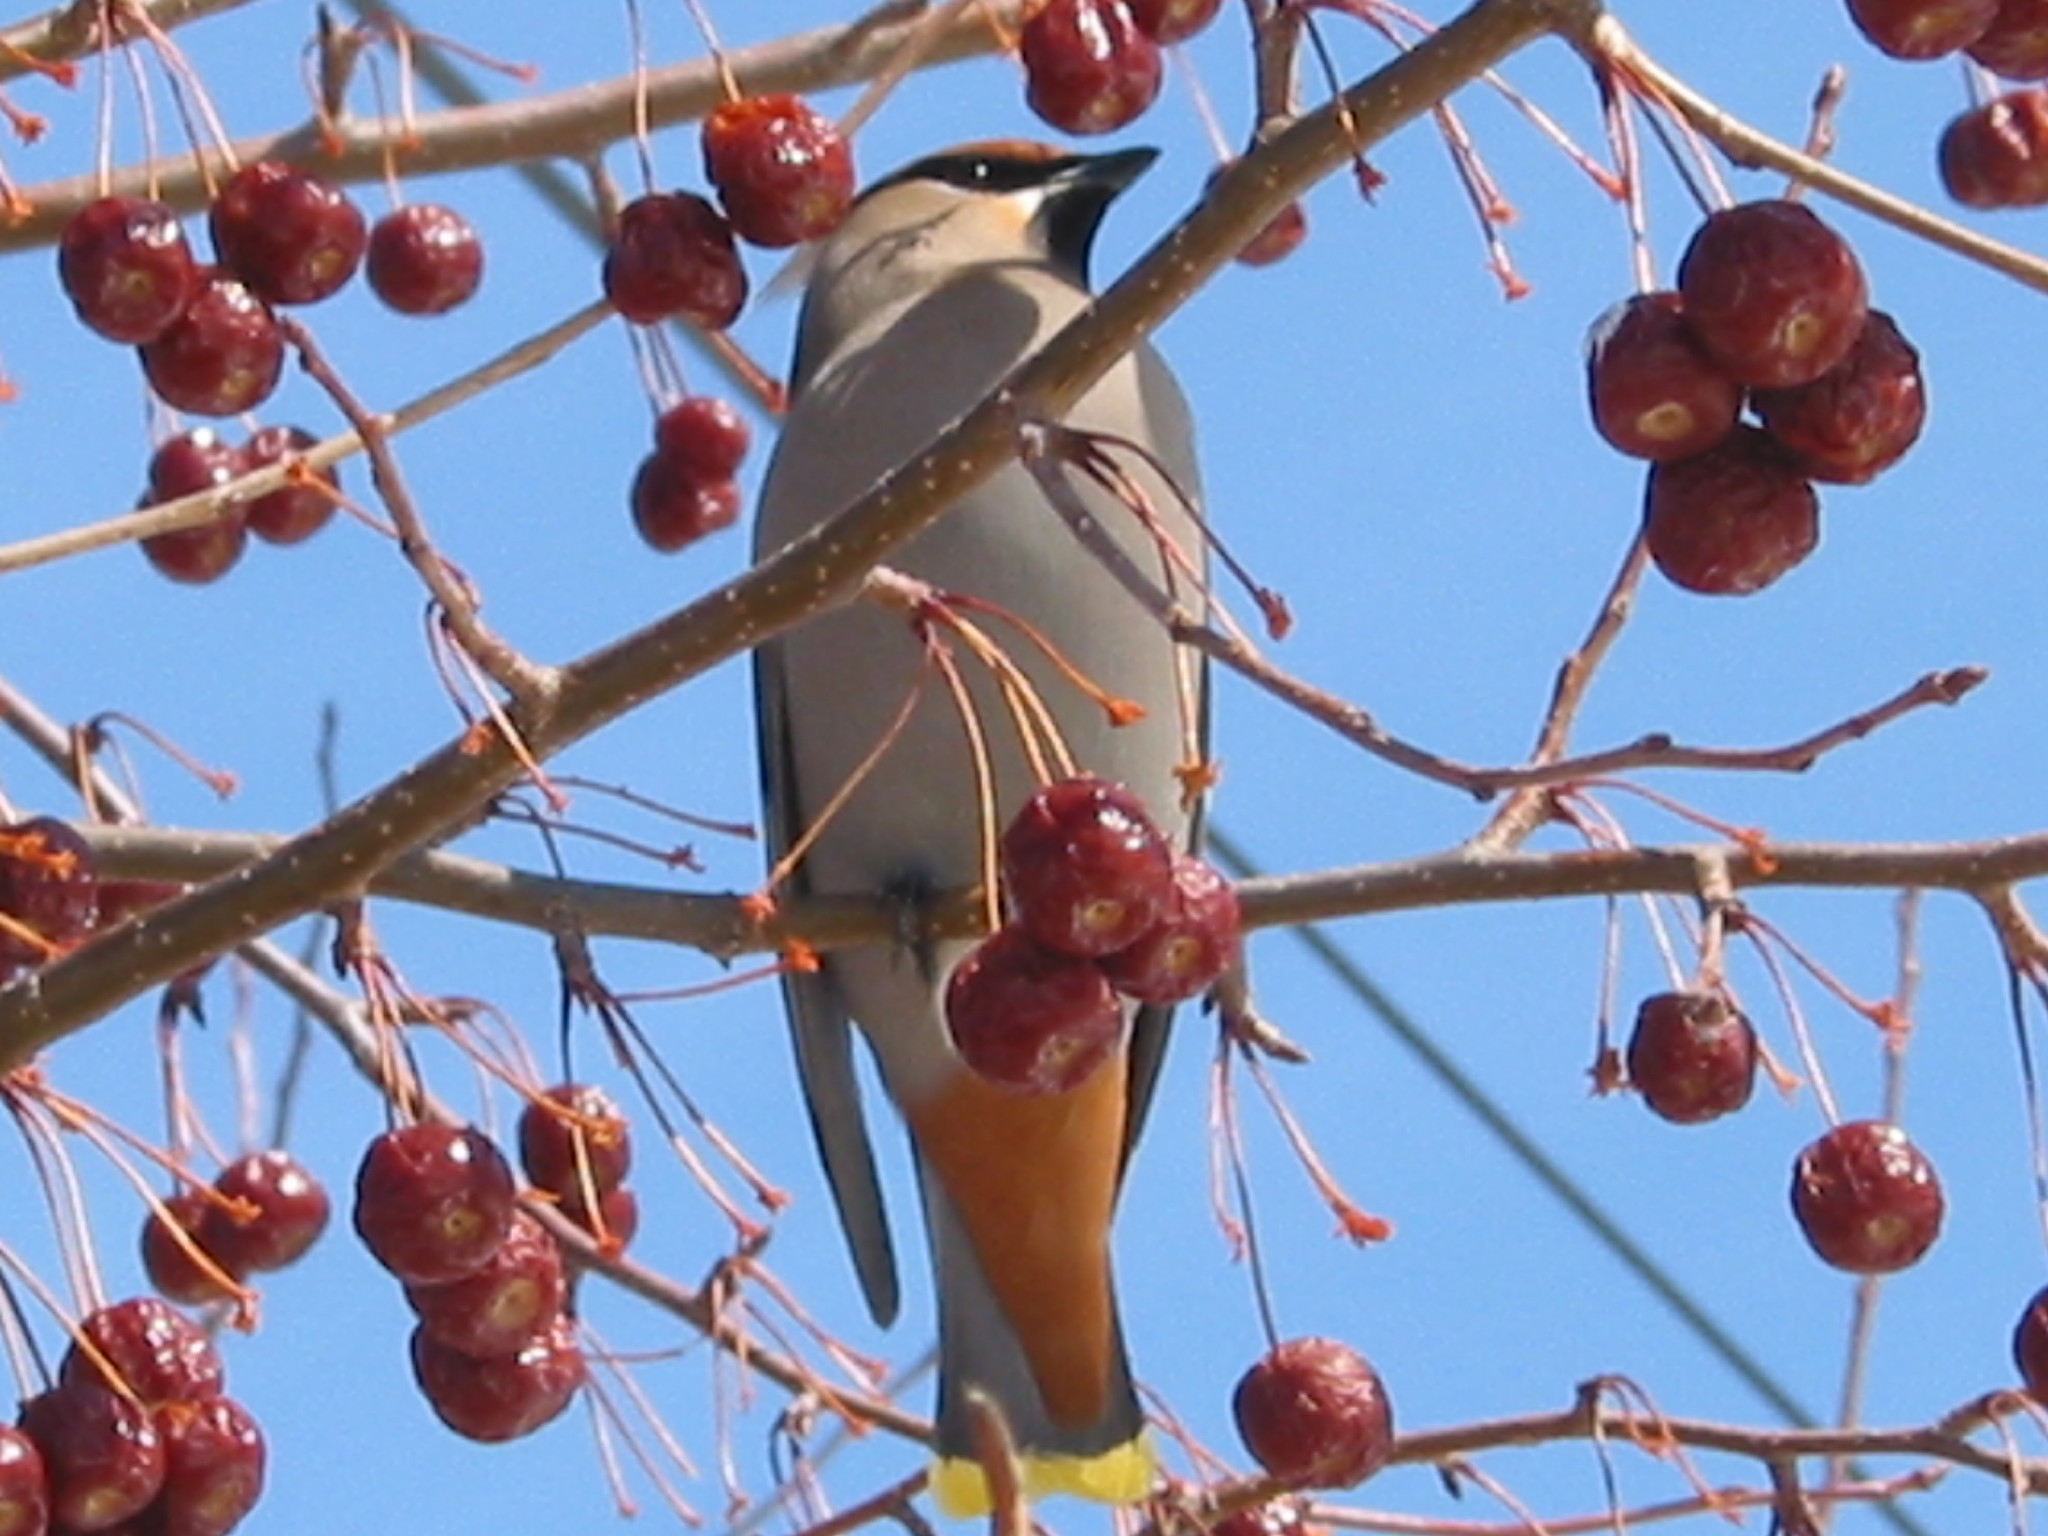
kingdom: Animalia
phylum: Chordata
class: Aves
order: Passeriformes
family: Bombycillidae
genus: Bombycilla
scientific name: Bombycilla garrulus
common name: Bohemian waxwing
